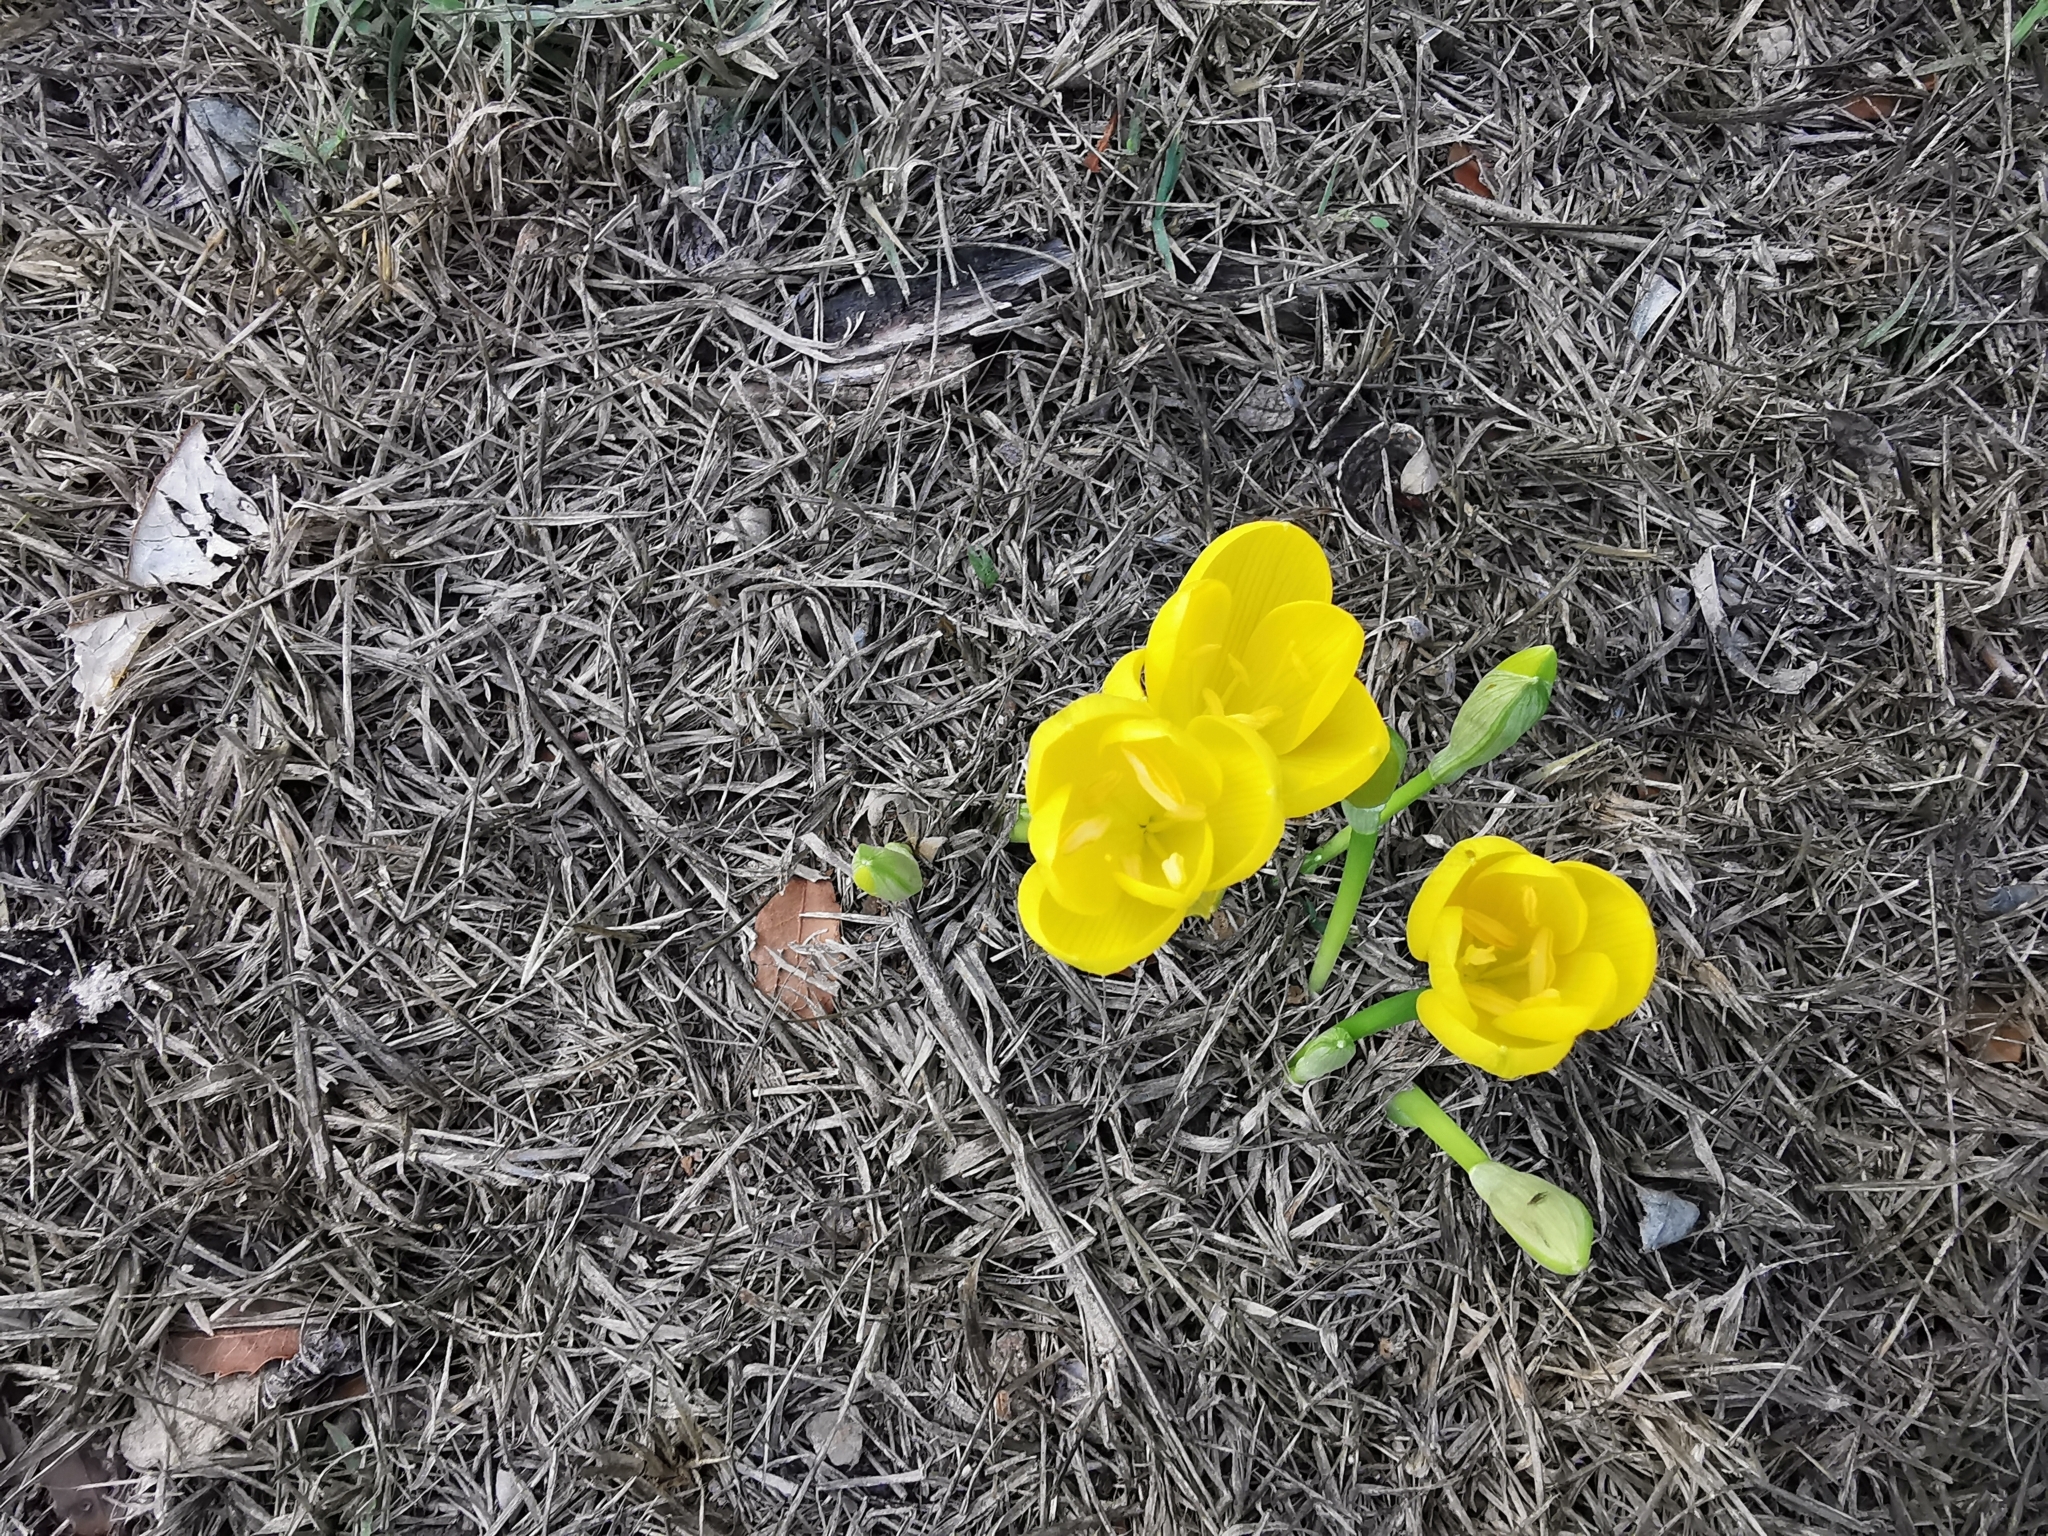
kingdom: Plantae
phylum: Tracheophyta
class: Liliopsida
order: Asparagales
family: Amaryllidaceae
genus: Sternbergia
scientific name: Sternbergia lutea
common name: Winter daffodil
